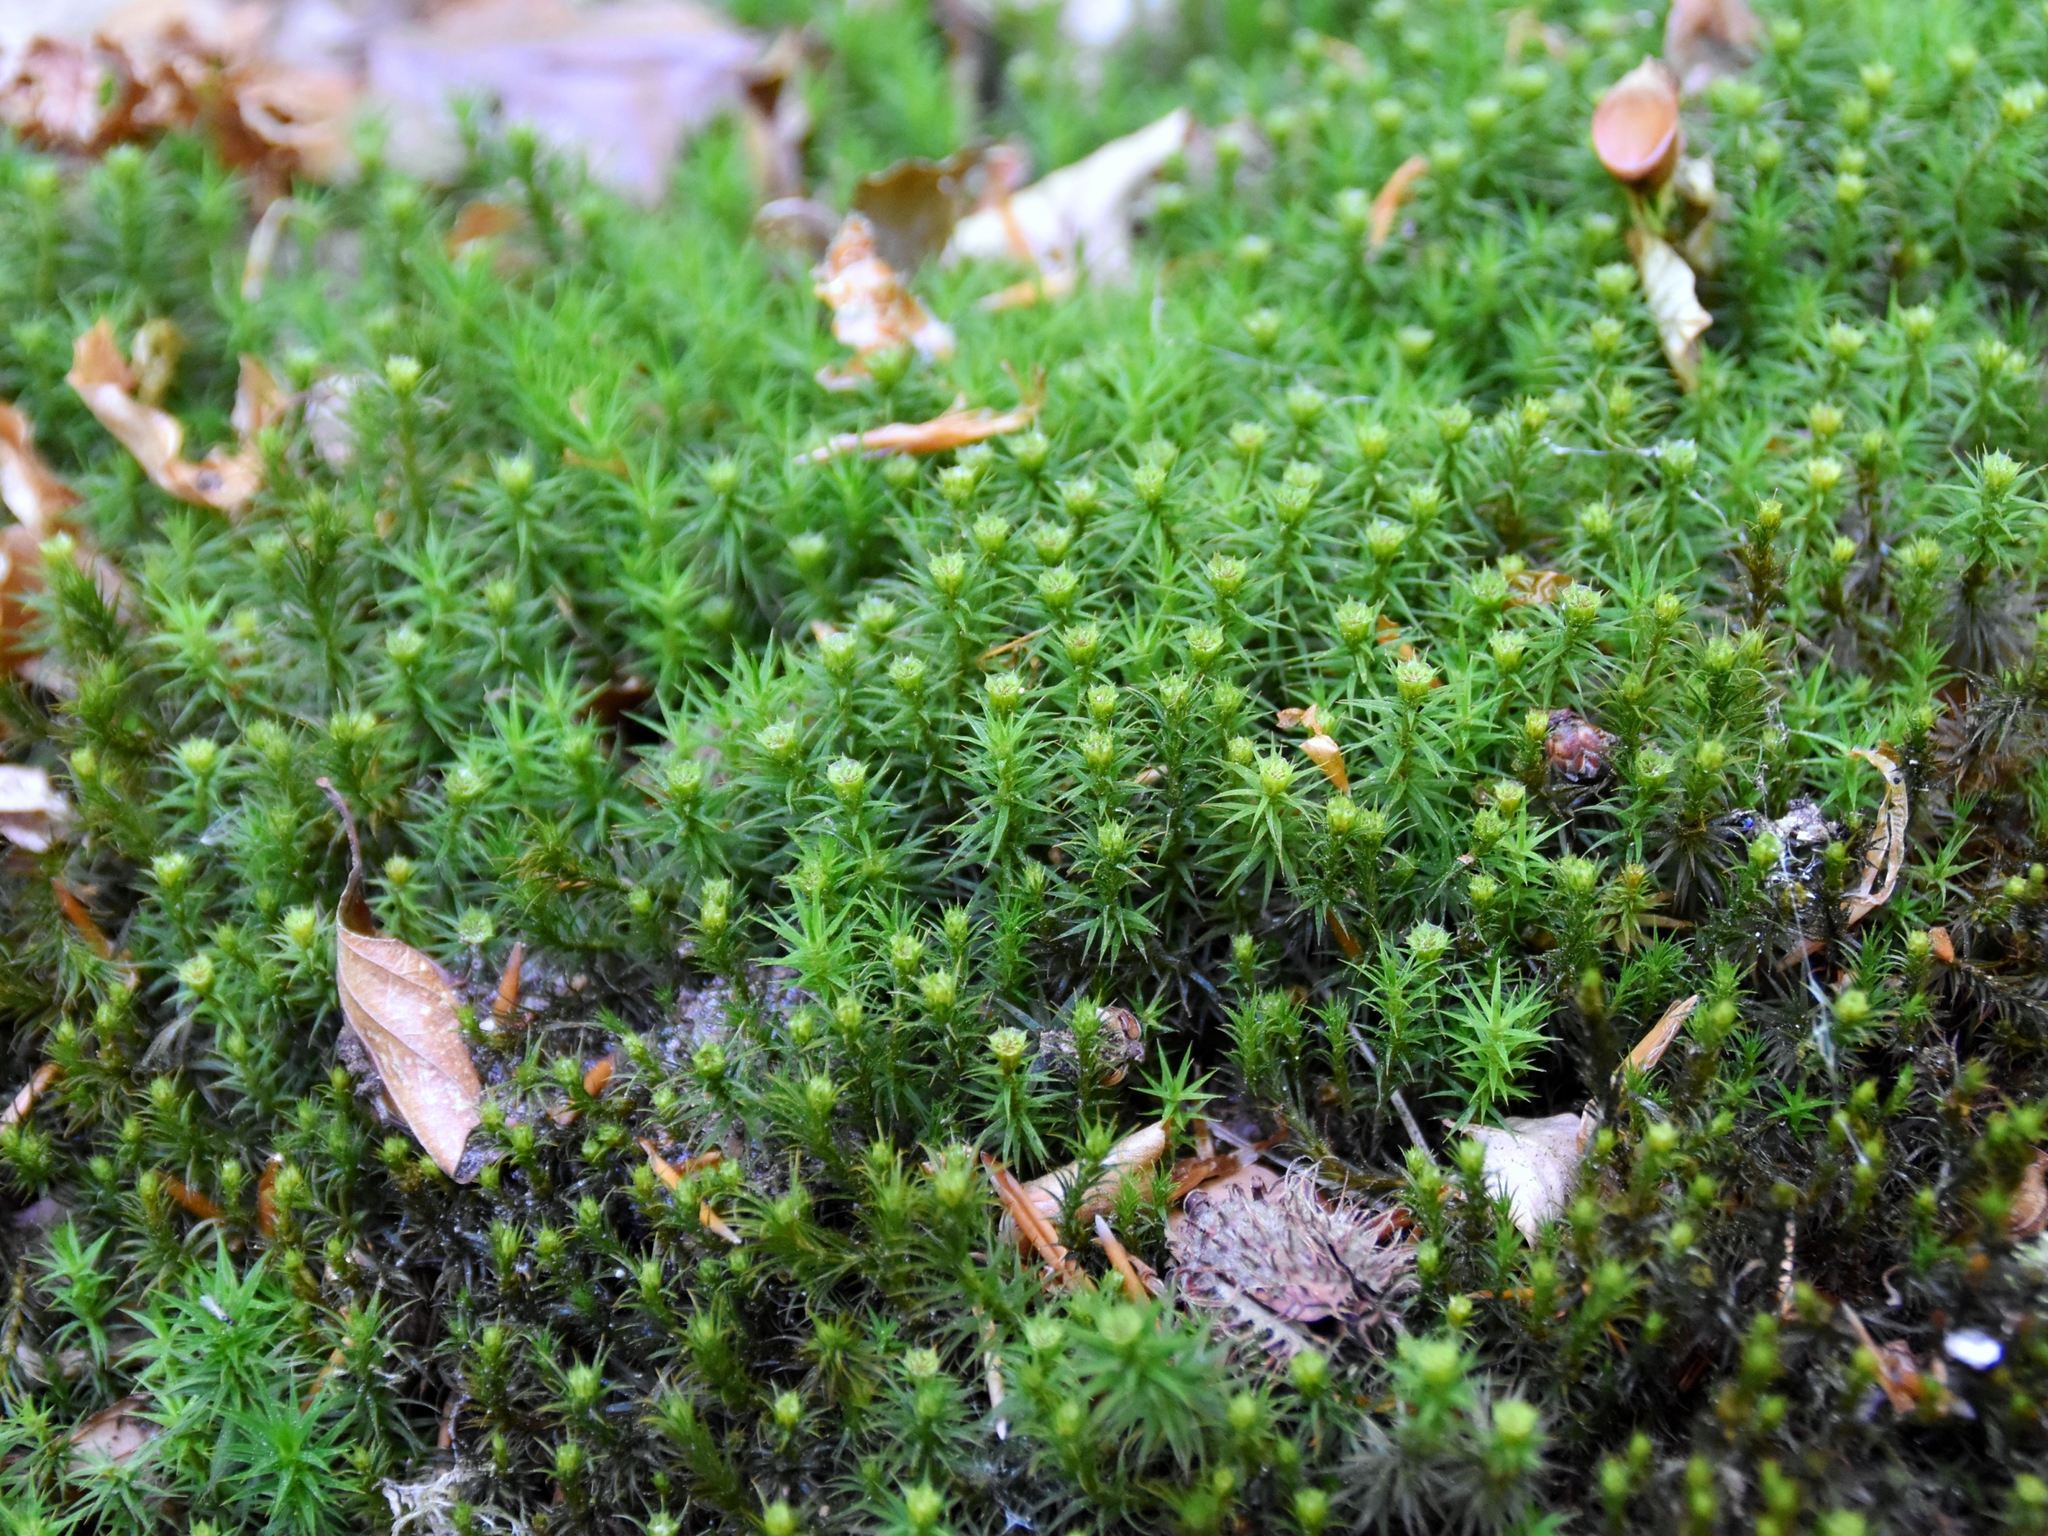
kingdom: Plantae
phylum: Bryophyta
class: Polytrichopsida
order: Polytrichales
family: Polytrichaceae
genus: Polytrichum
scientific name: Polytrichum formosum
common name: Bank haircap moss
